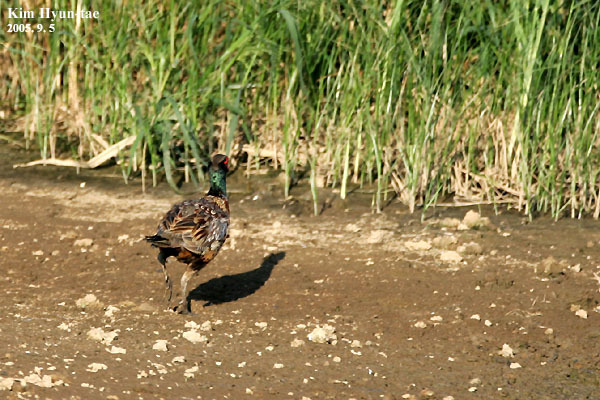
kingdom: Animalia
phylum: Chordata
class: Aves
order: Galliformes
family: Phasianidae
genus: Phasianus
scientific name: Phasianus colchicus
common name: Common pheasant
